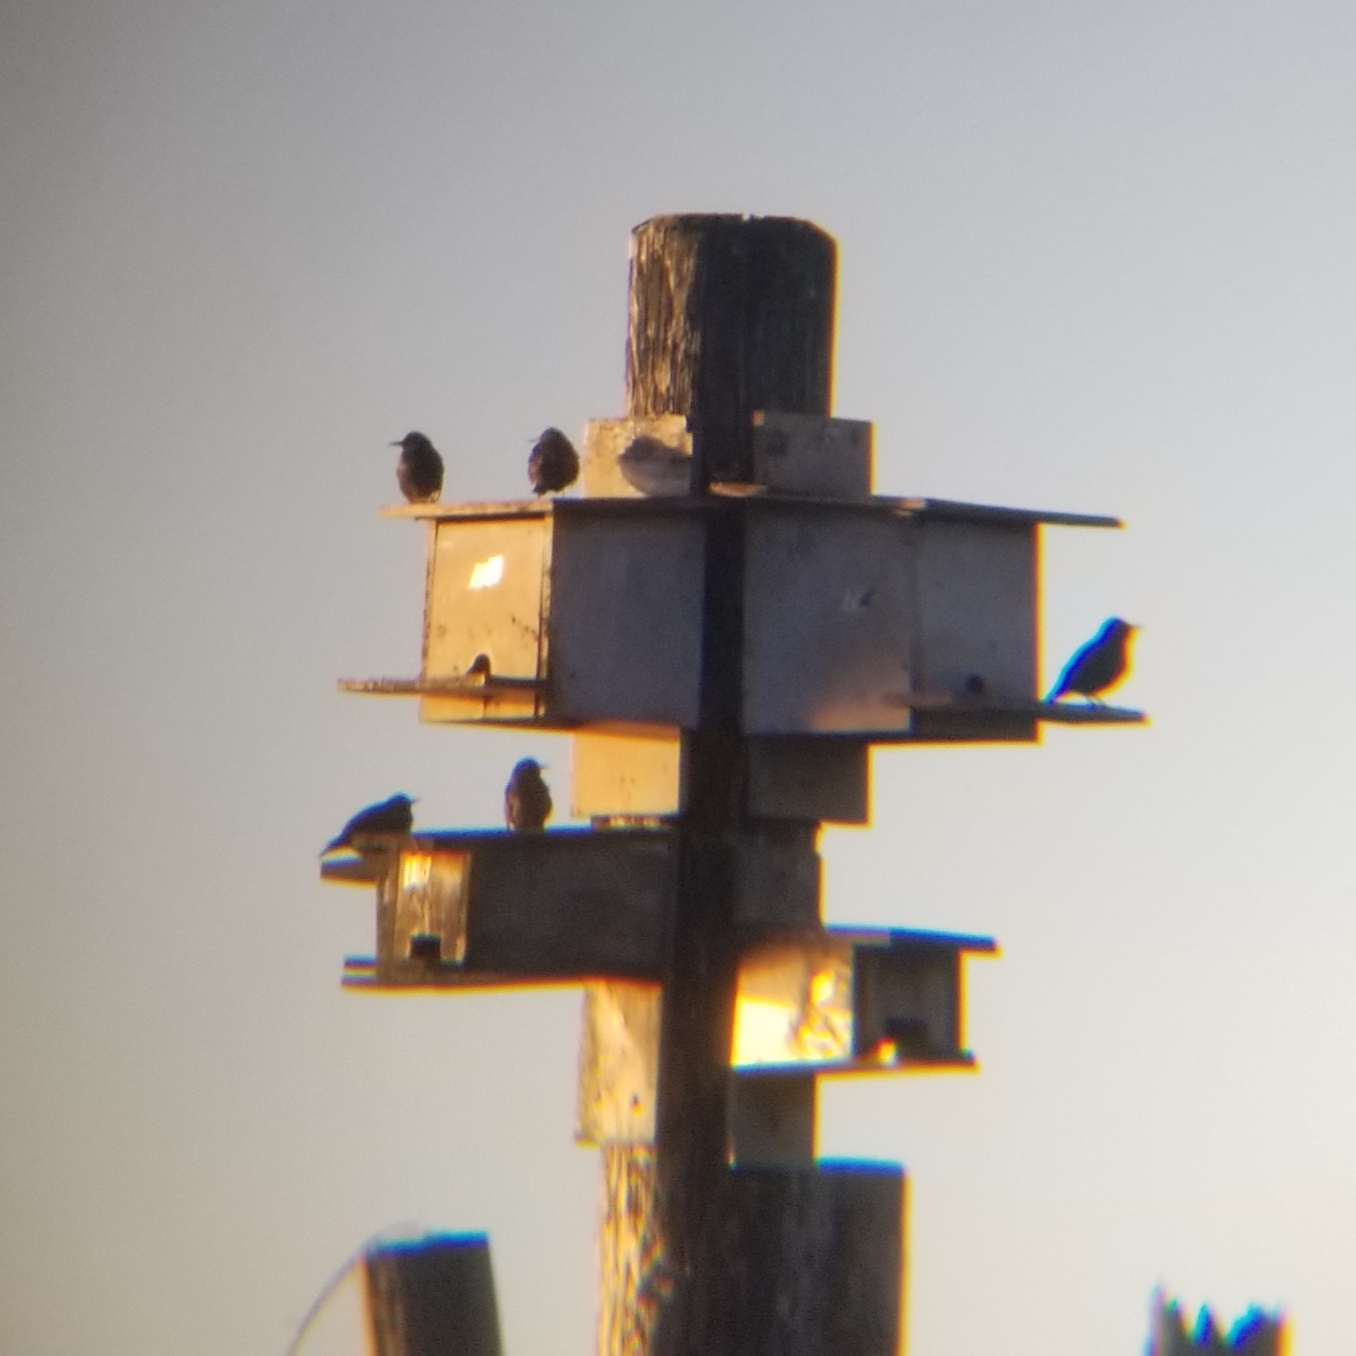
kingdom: Animalia
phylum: Chordata
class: Aves
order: Passeriformes
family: Sturnidae
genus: Sturnus
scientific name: Sturnus vulgaris
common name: Common starling
